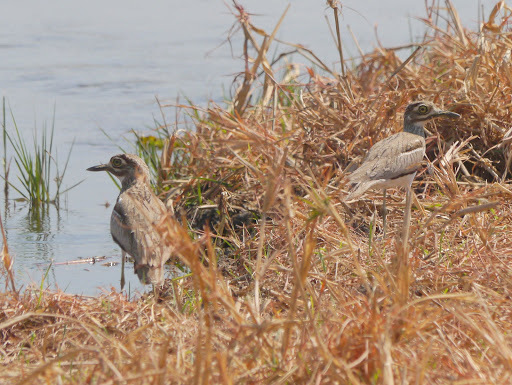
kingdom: Animalia
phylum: Chordata
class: Aves
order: Charadriiformes
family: Burhinidae
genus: Burhinus
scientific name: Burhinus vermiculatus
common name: Water thick-knee
